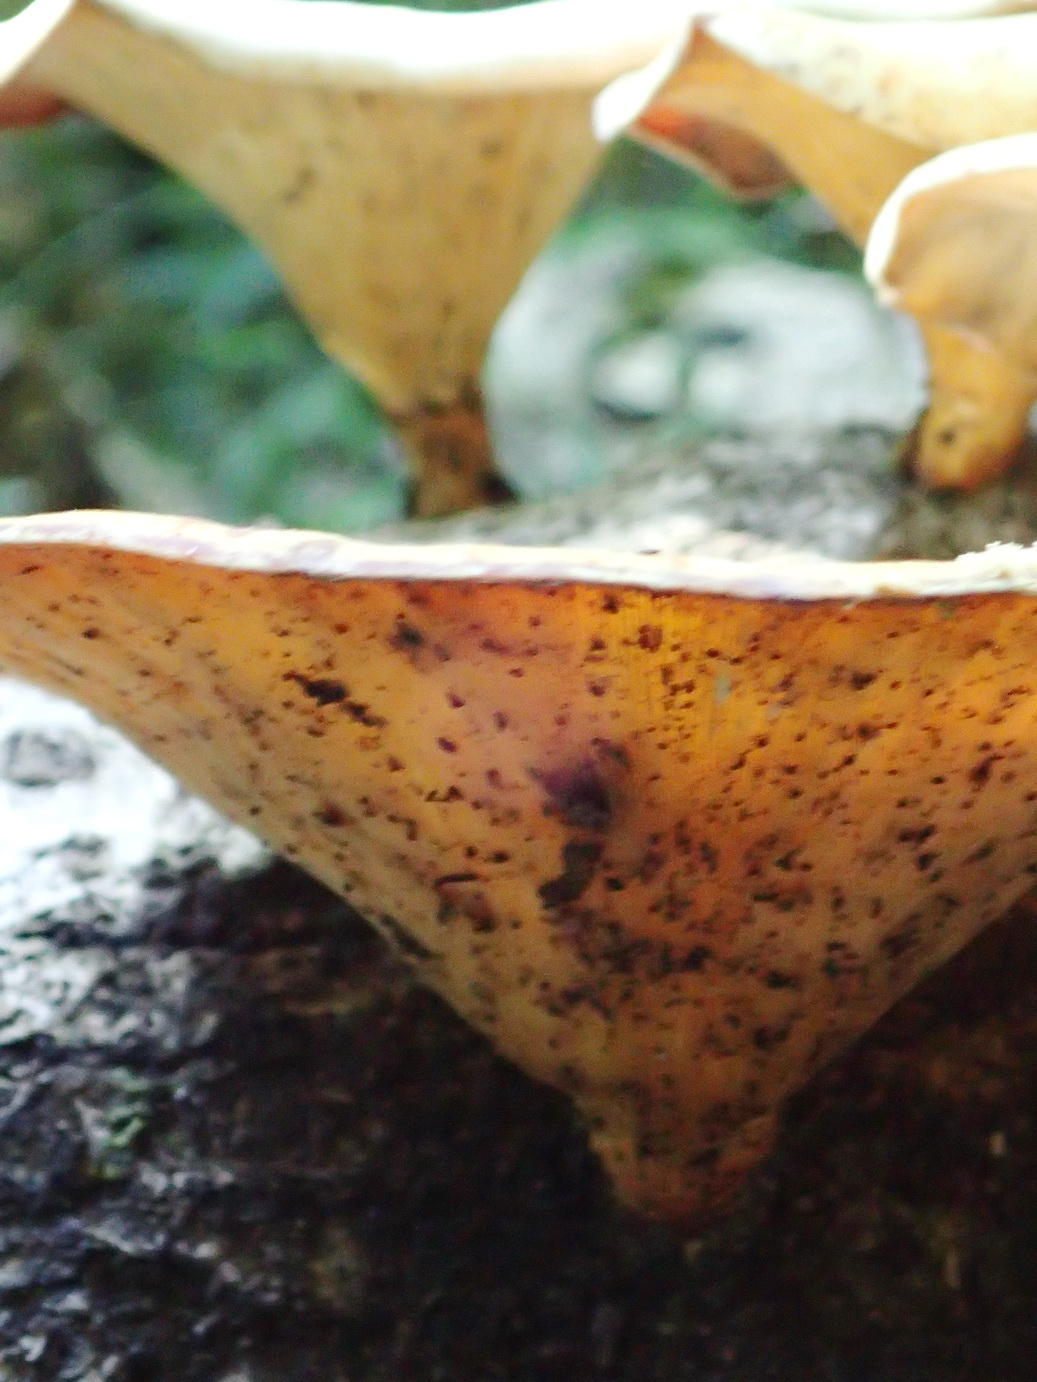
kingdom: Fungi
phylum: Basidiomycota
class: Agaricomycetes
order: Polyporales
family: Polyporaceae
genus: Lentinus
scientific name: Lentinus sajor-caju
